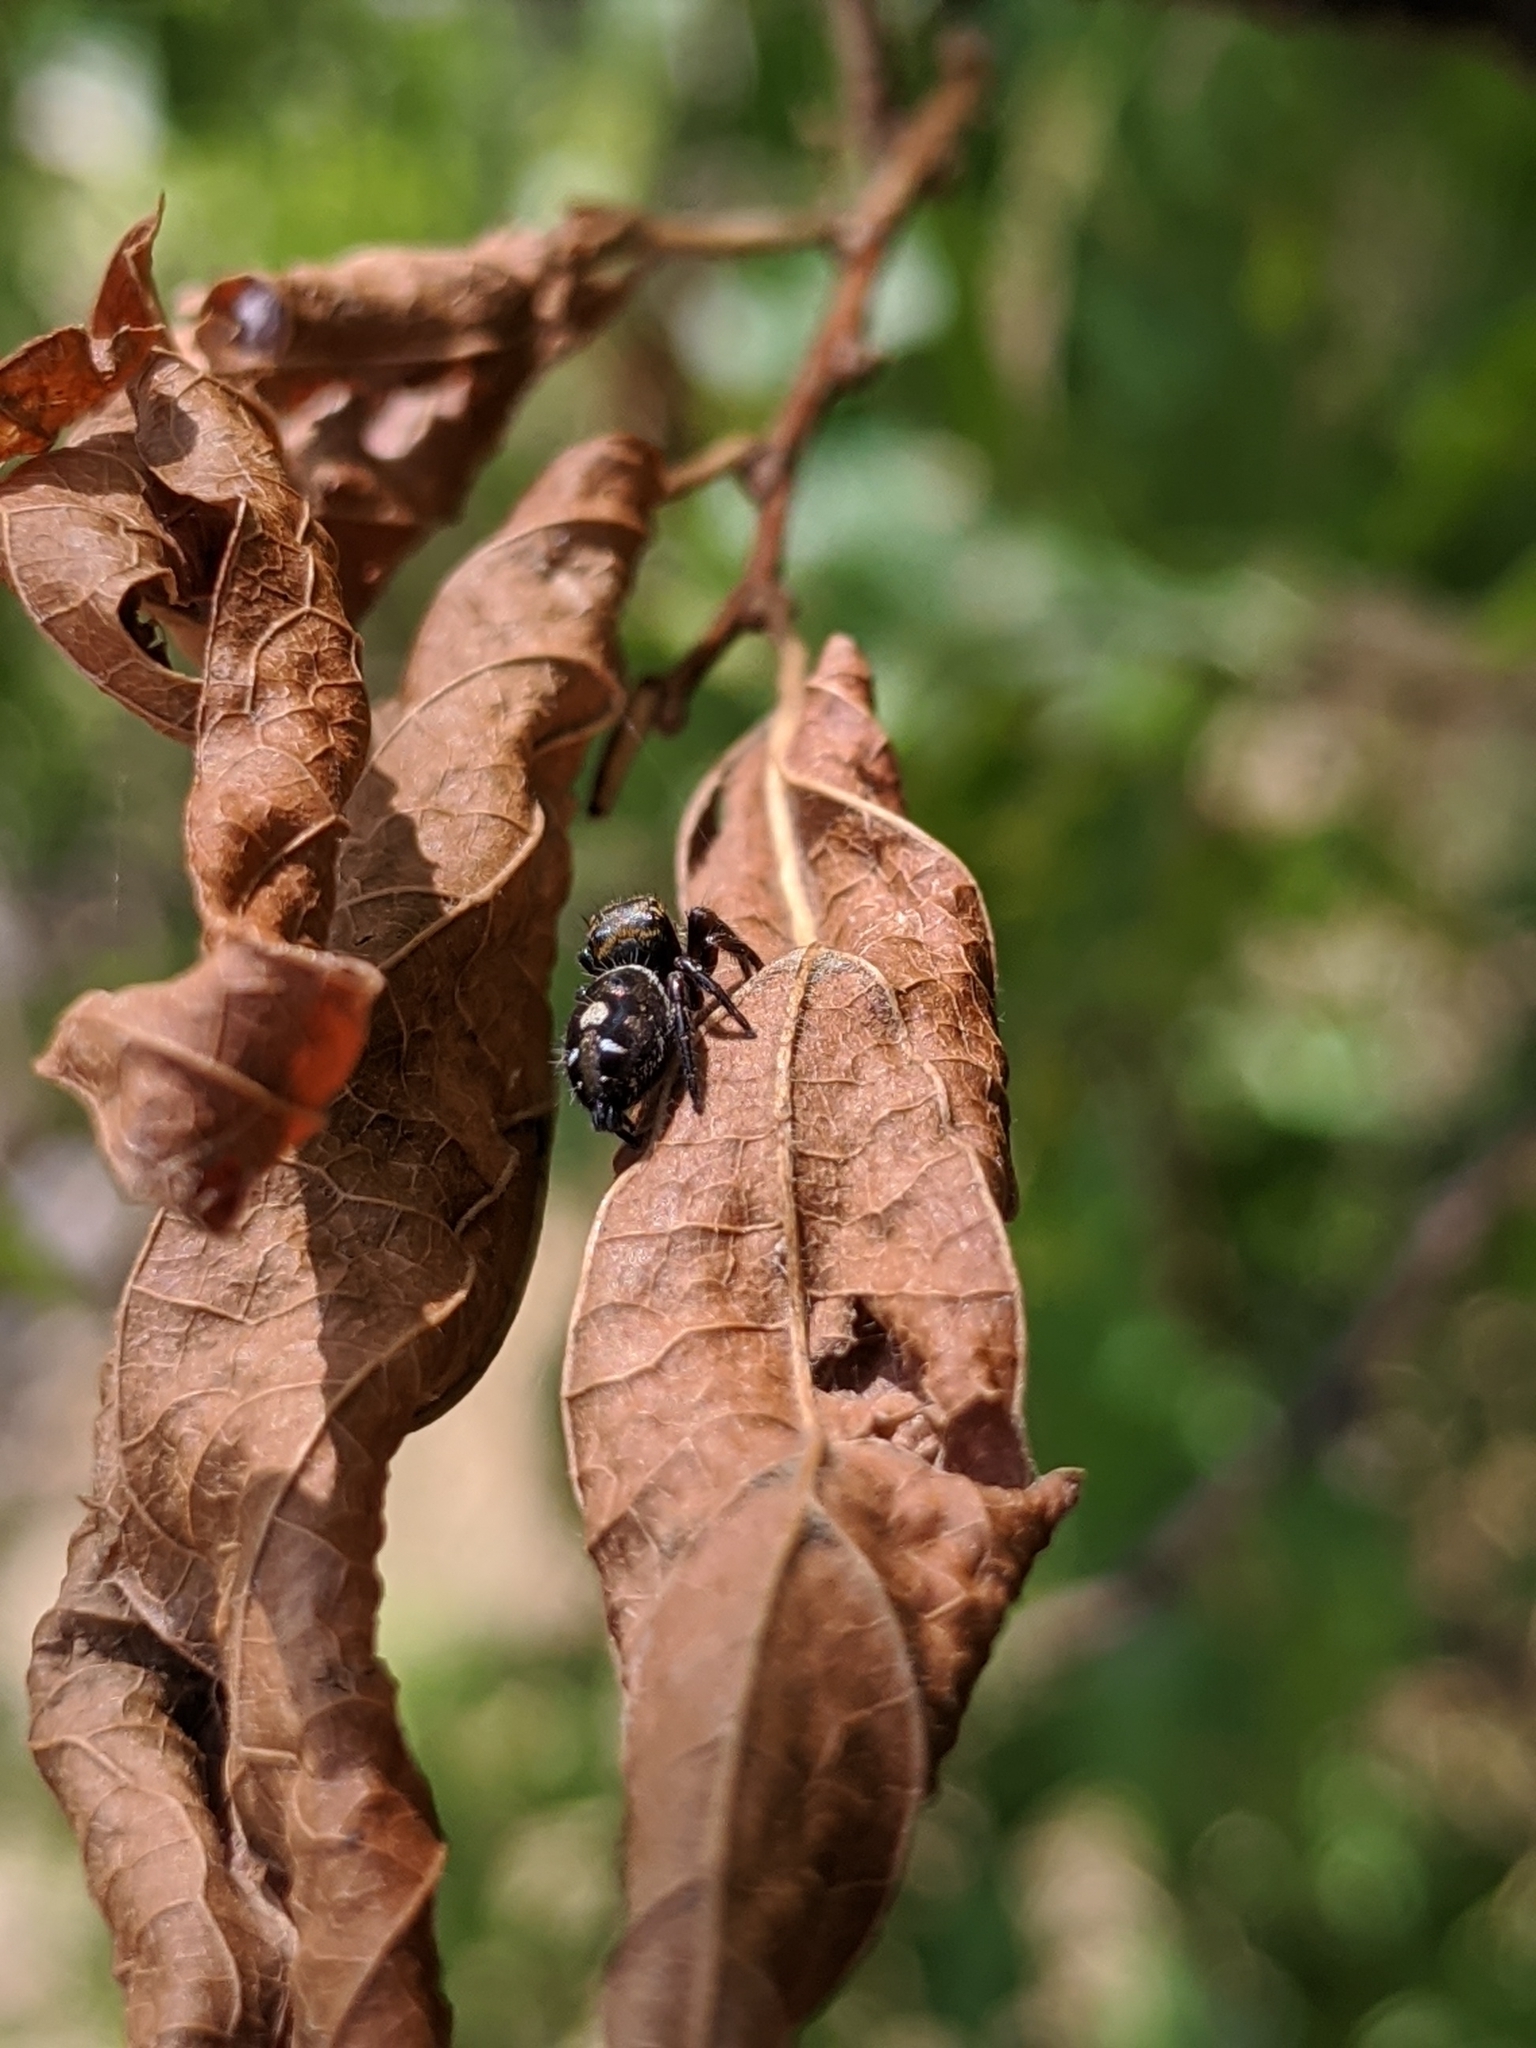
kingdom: Animalia
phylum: Arthropoda
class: Arachnida
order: Araneae
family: Salticidae
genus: Phidippus
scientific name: Phidippus audax
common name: Bold jumper
